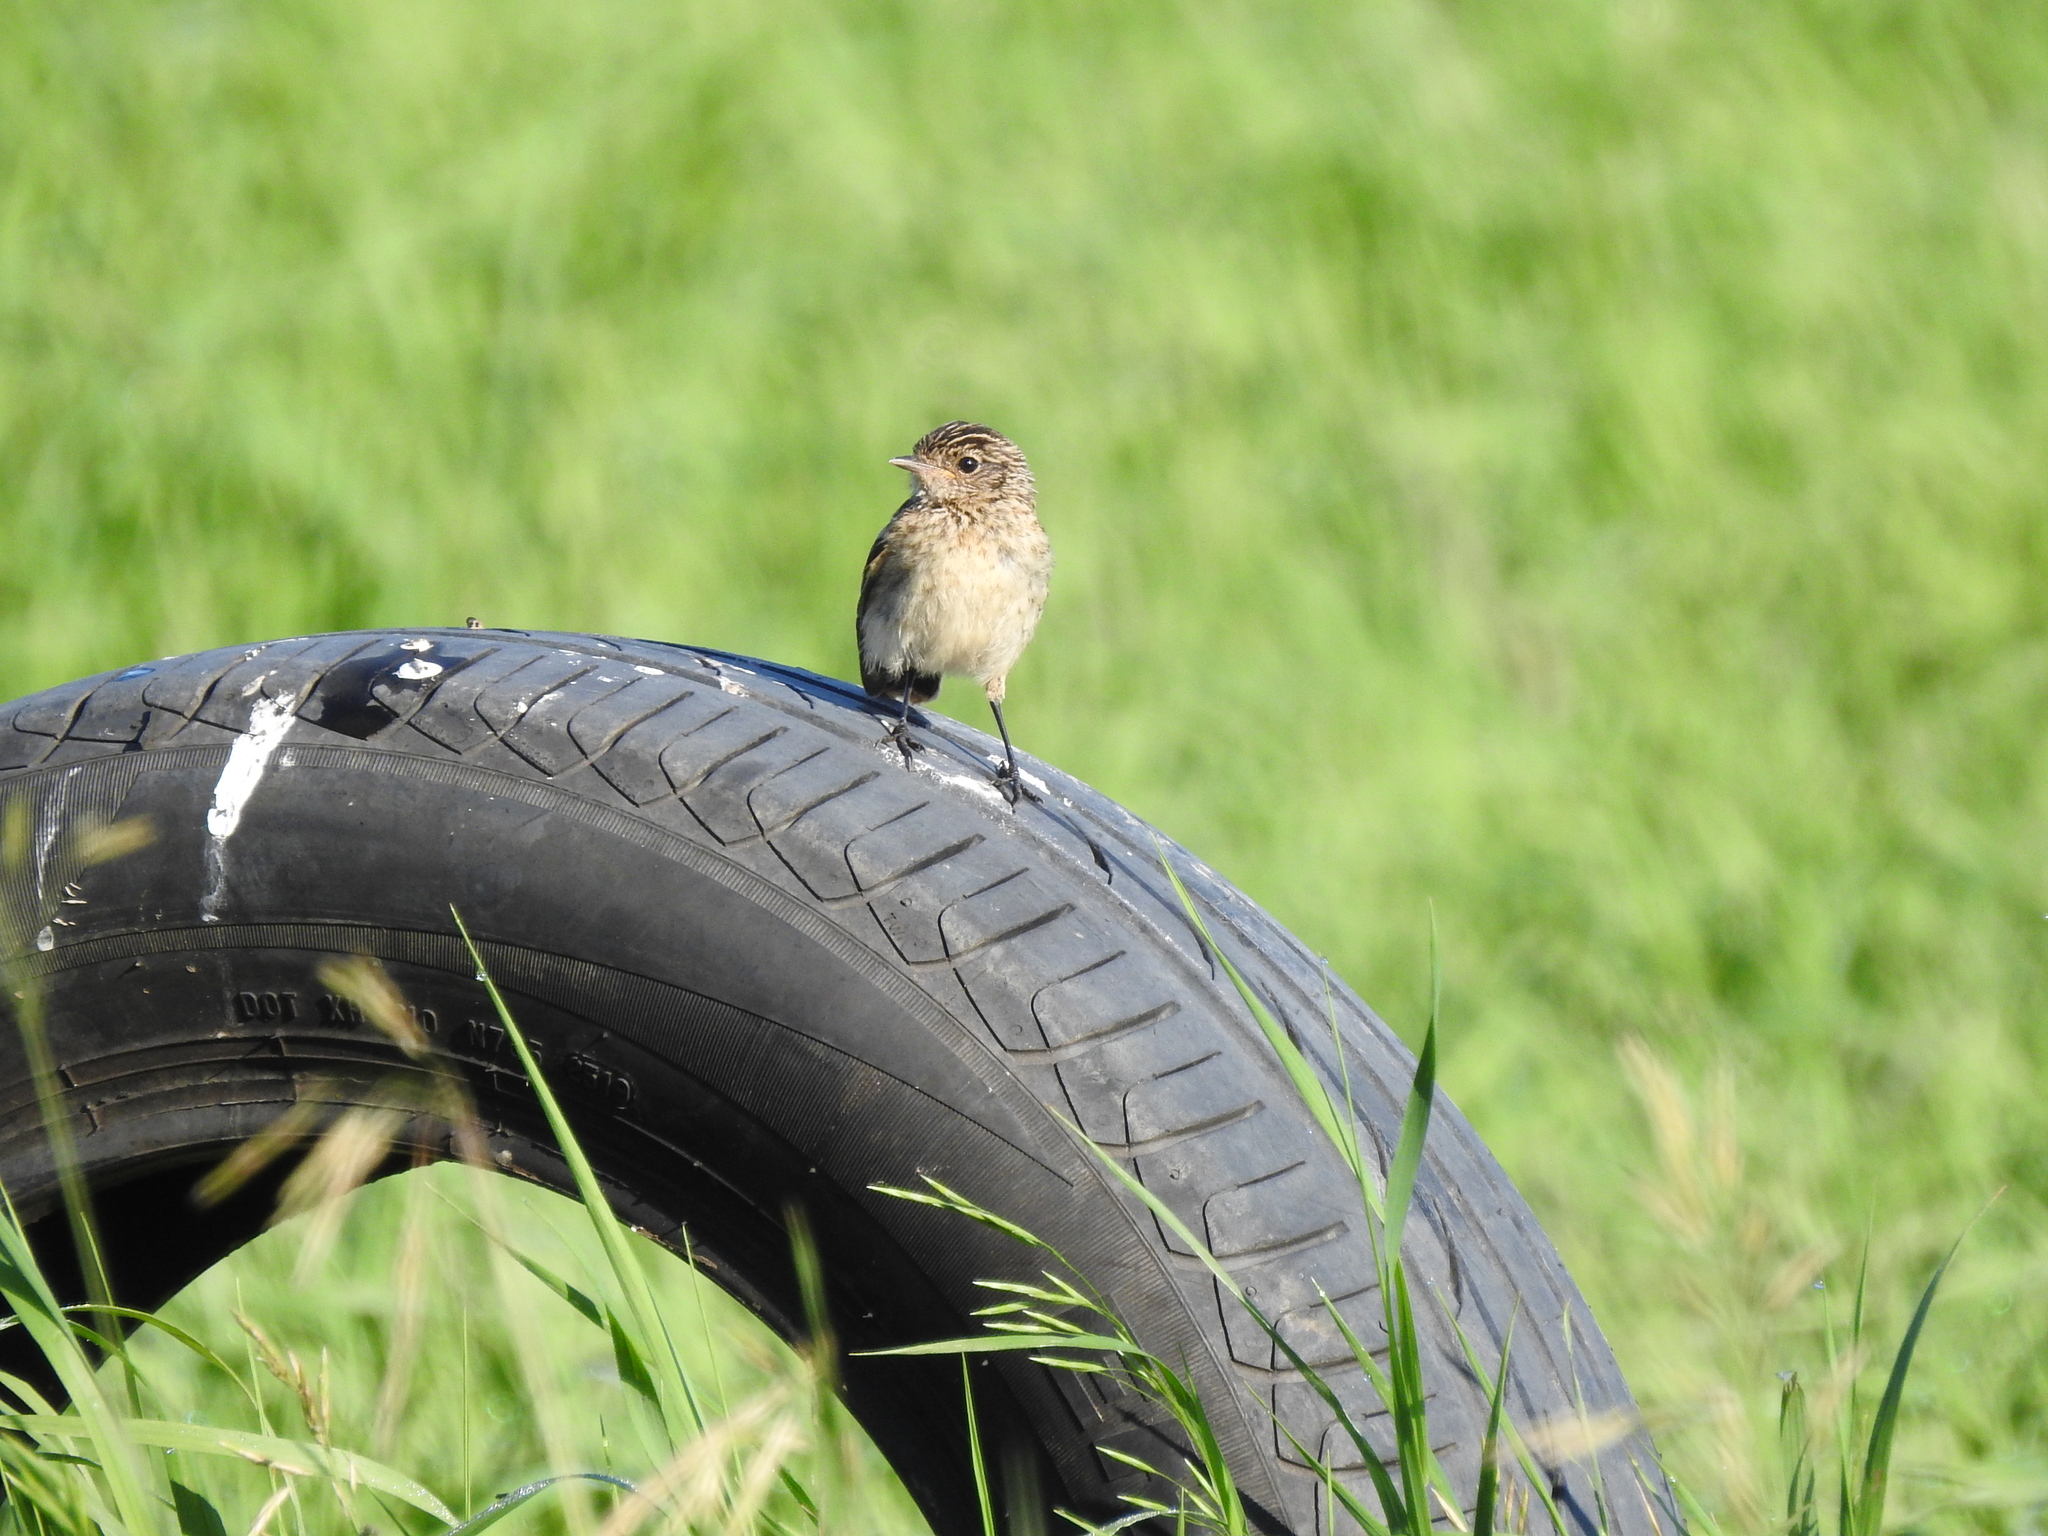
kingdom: Animalia
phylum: Chordata
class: Aves
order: Passeriformes
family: Muscicapidae
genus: Saxicola
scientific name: Saxicola maurus
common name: Siberian stonechat
